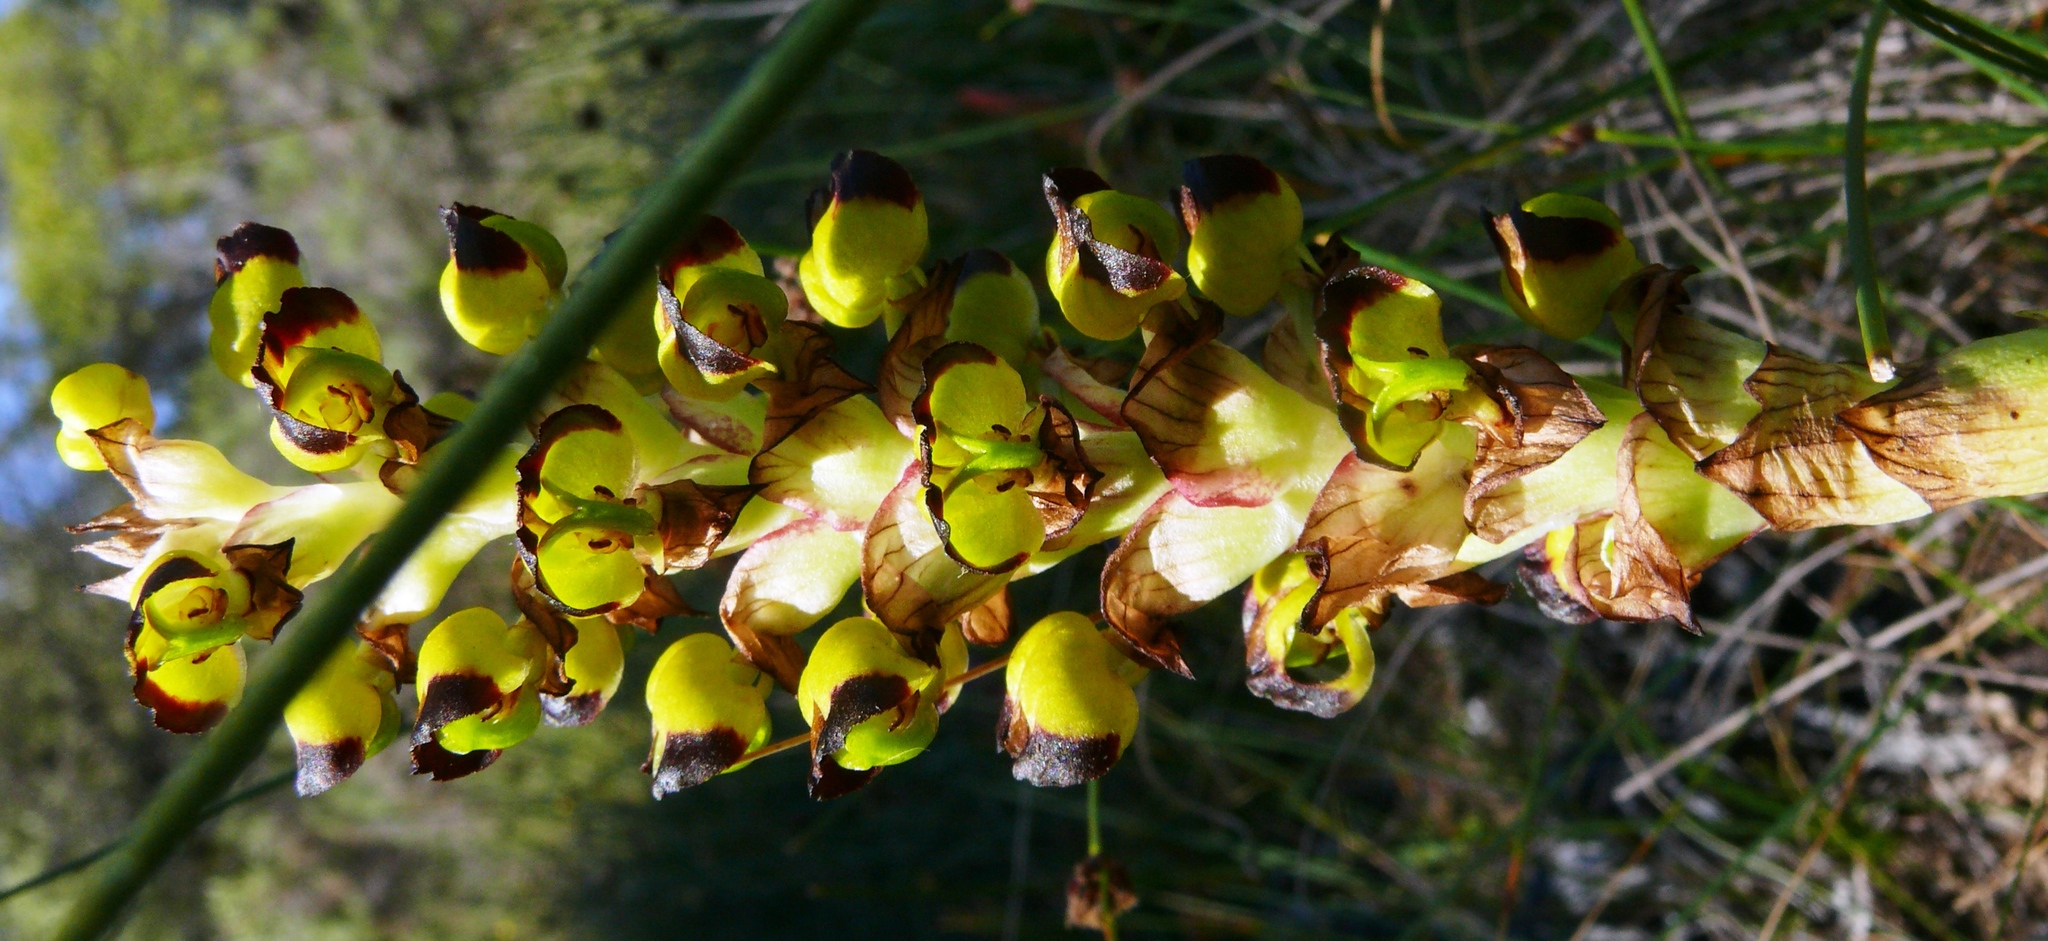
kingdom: Plantae
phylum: Tracheophyta
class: Liliopsida
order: Asparagales
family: Orchidaceae
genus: Corycium
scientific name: Corycium ingeanum
